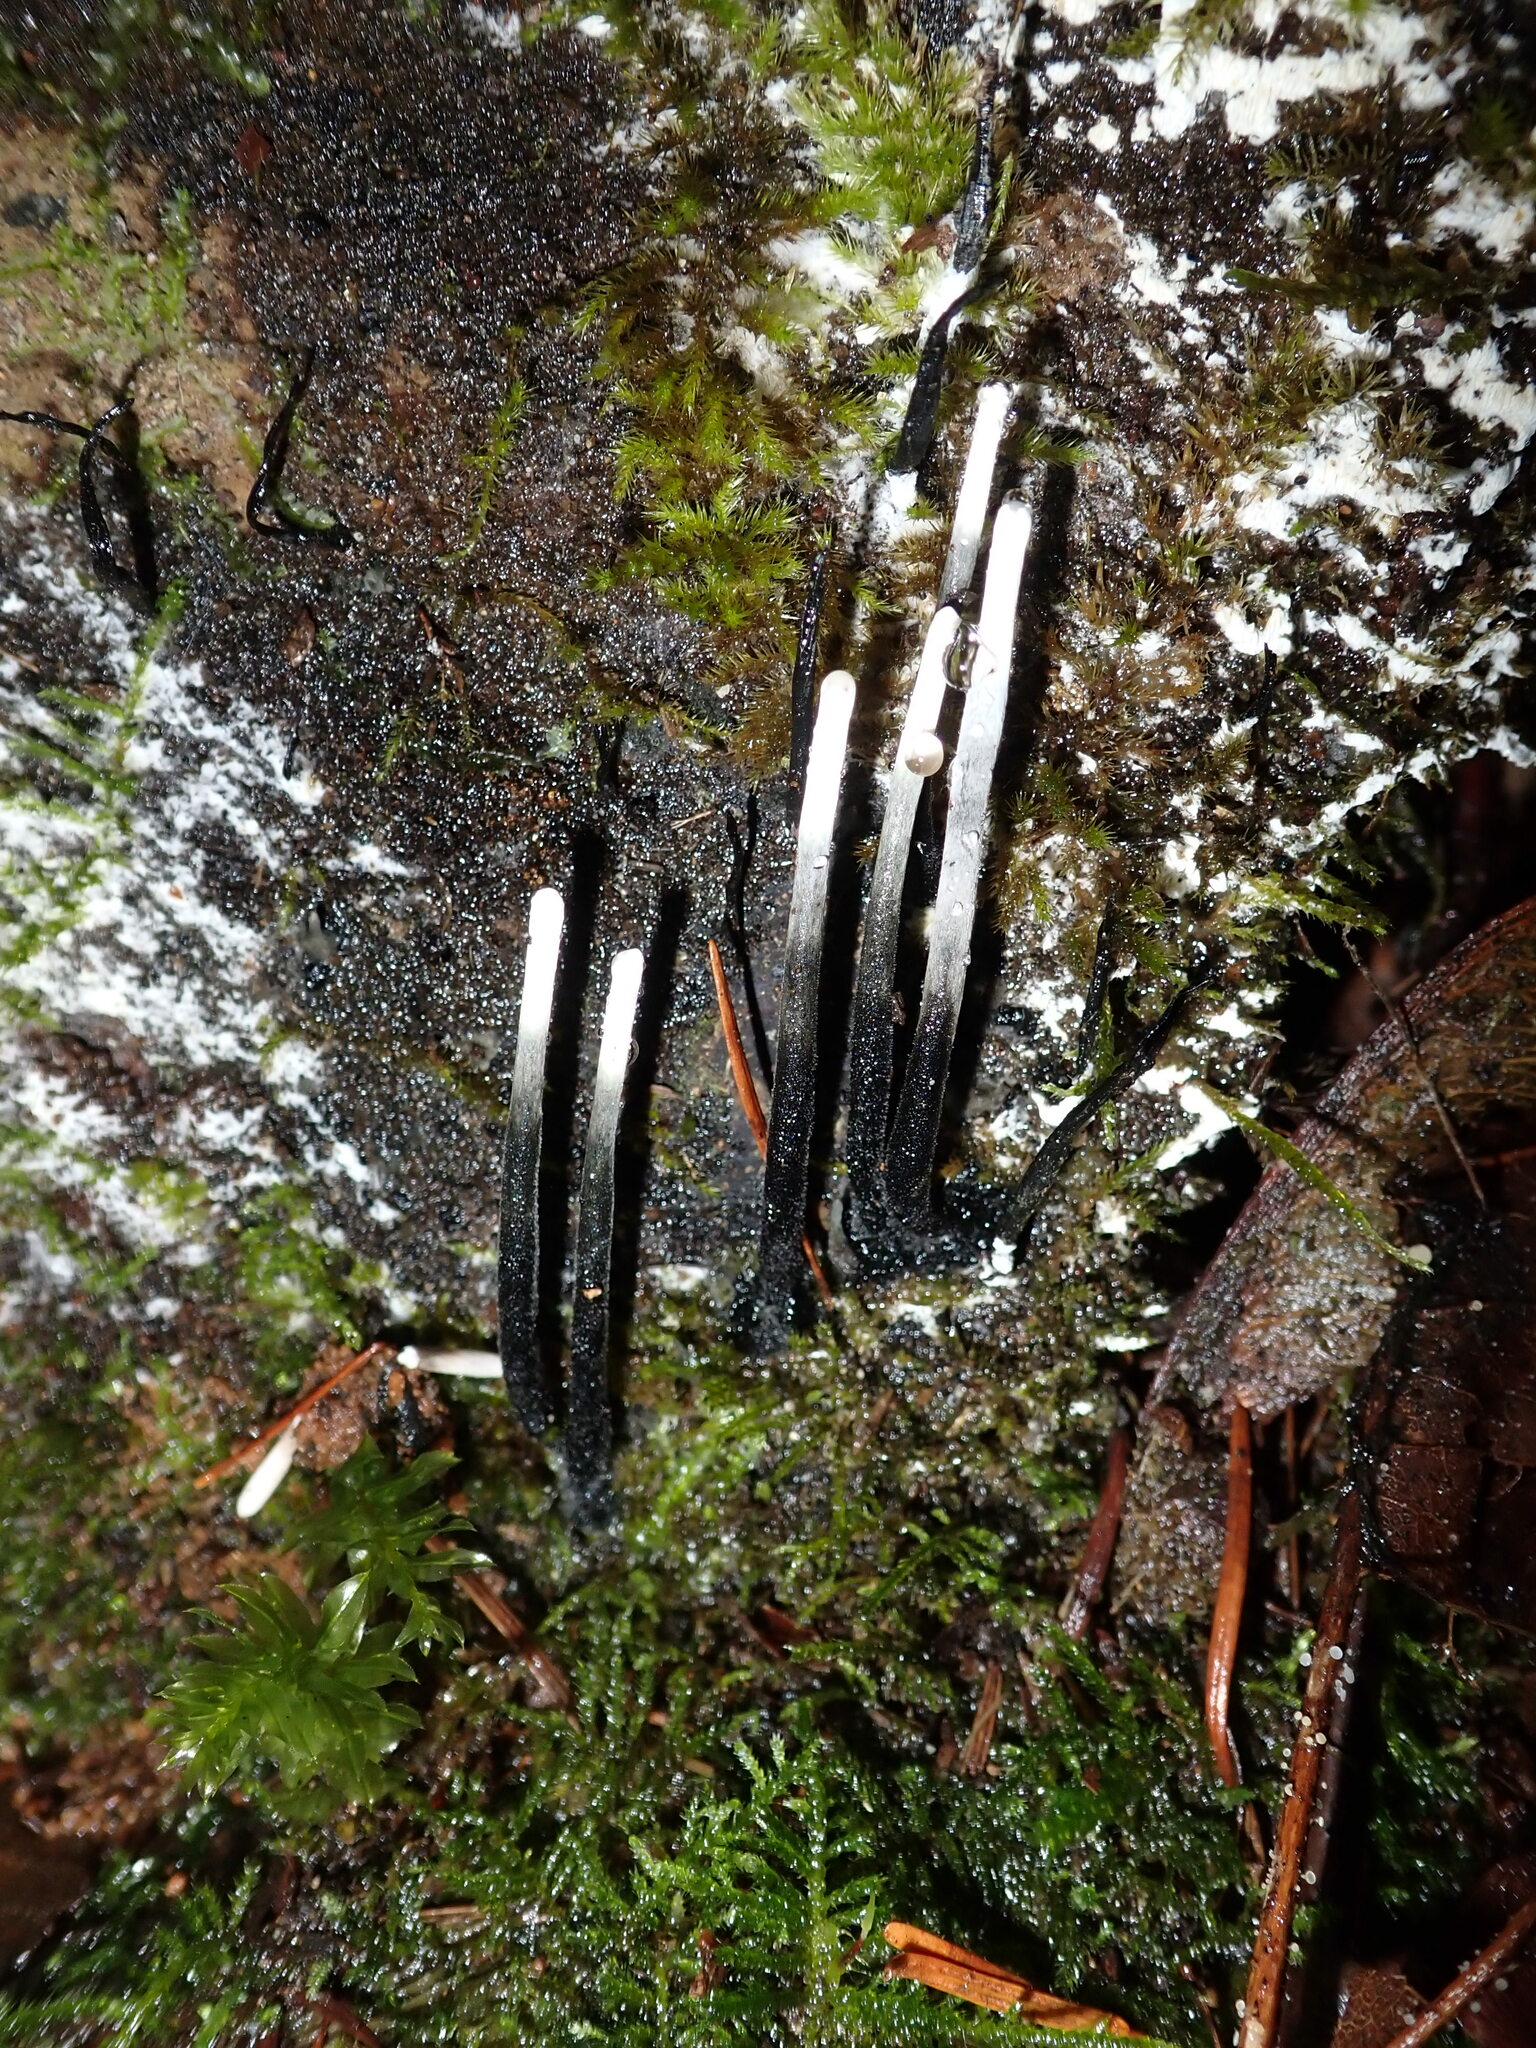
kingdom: Fungi
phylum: Ascomycota
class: Sordariomycetes
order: Xylariales
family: Xylariaceae
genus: Xylaria
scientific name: Xylaria hypoxylon
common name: Candle-snuff fungus
